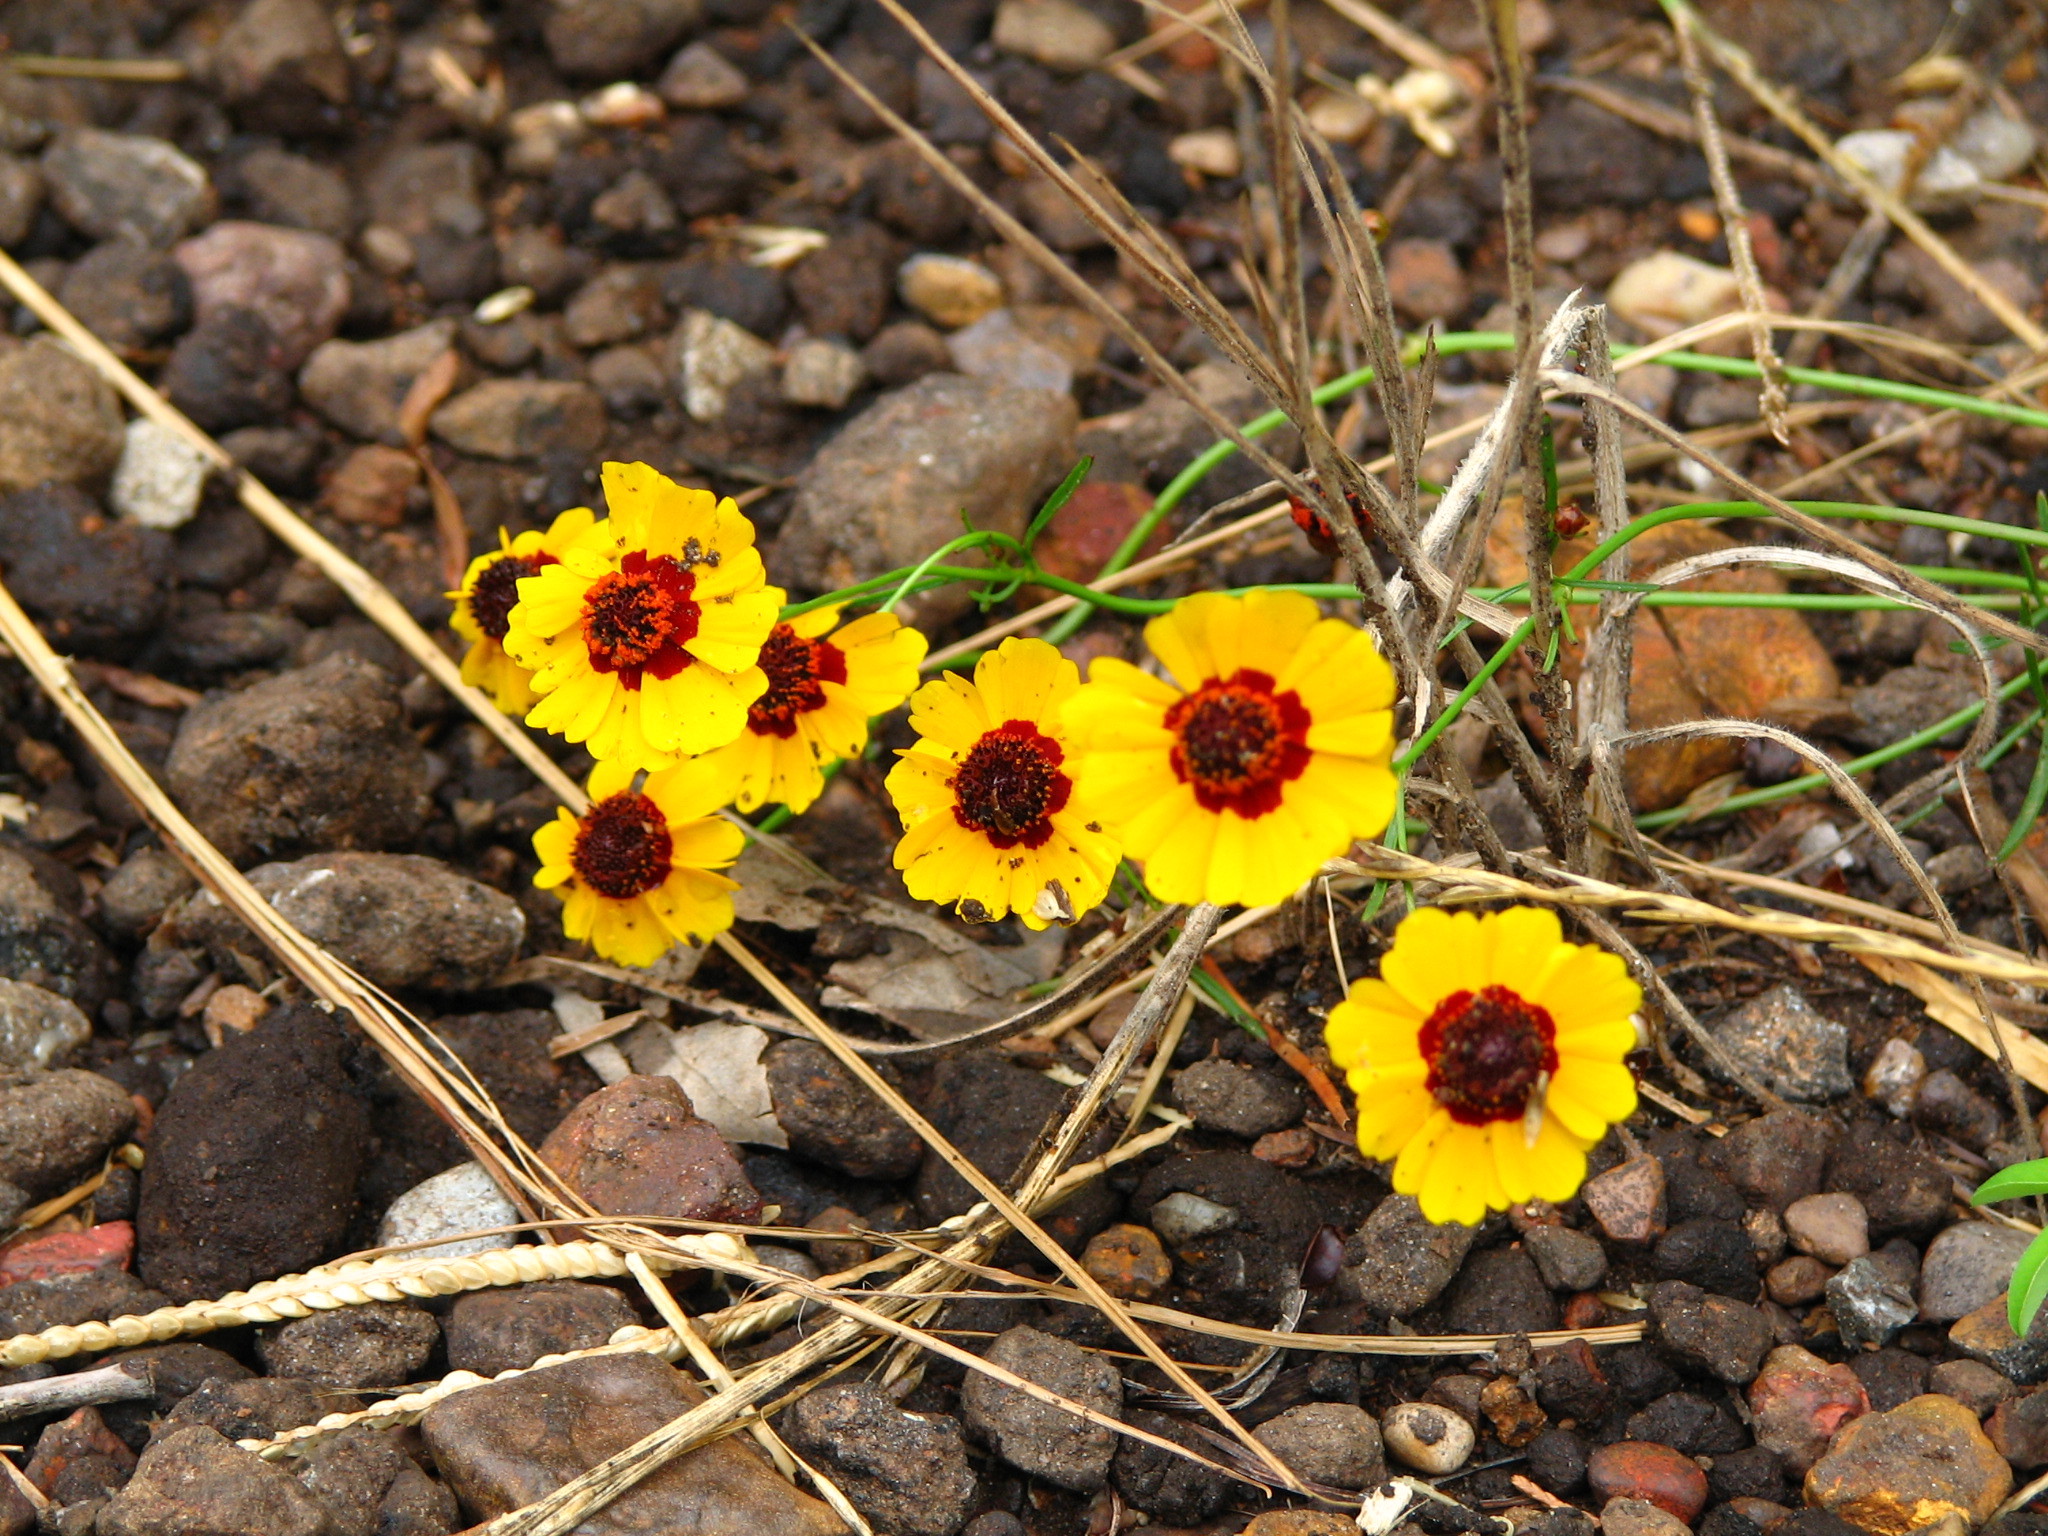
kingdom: Plantae
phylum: Tracheophyta
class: Magnoliopsida
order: Asterales
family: Asteraceae
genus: Coreopsis
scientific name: Coreopsis tinctoria
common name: Garden tickseed
